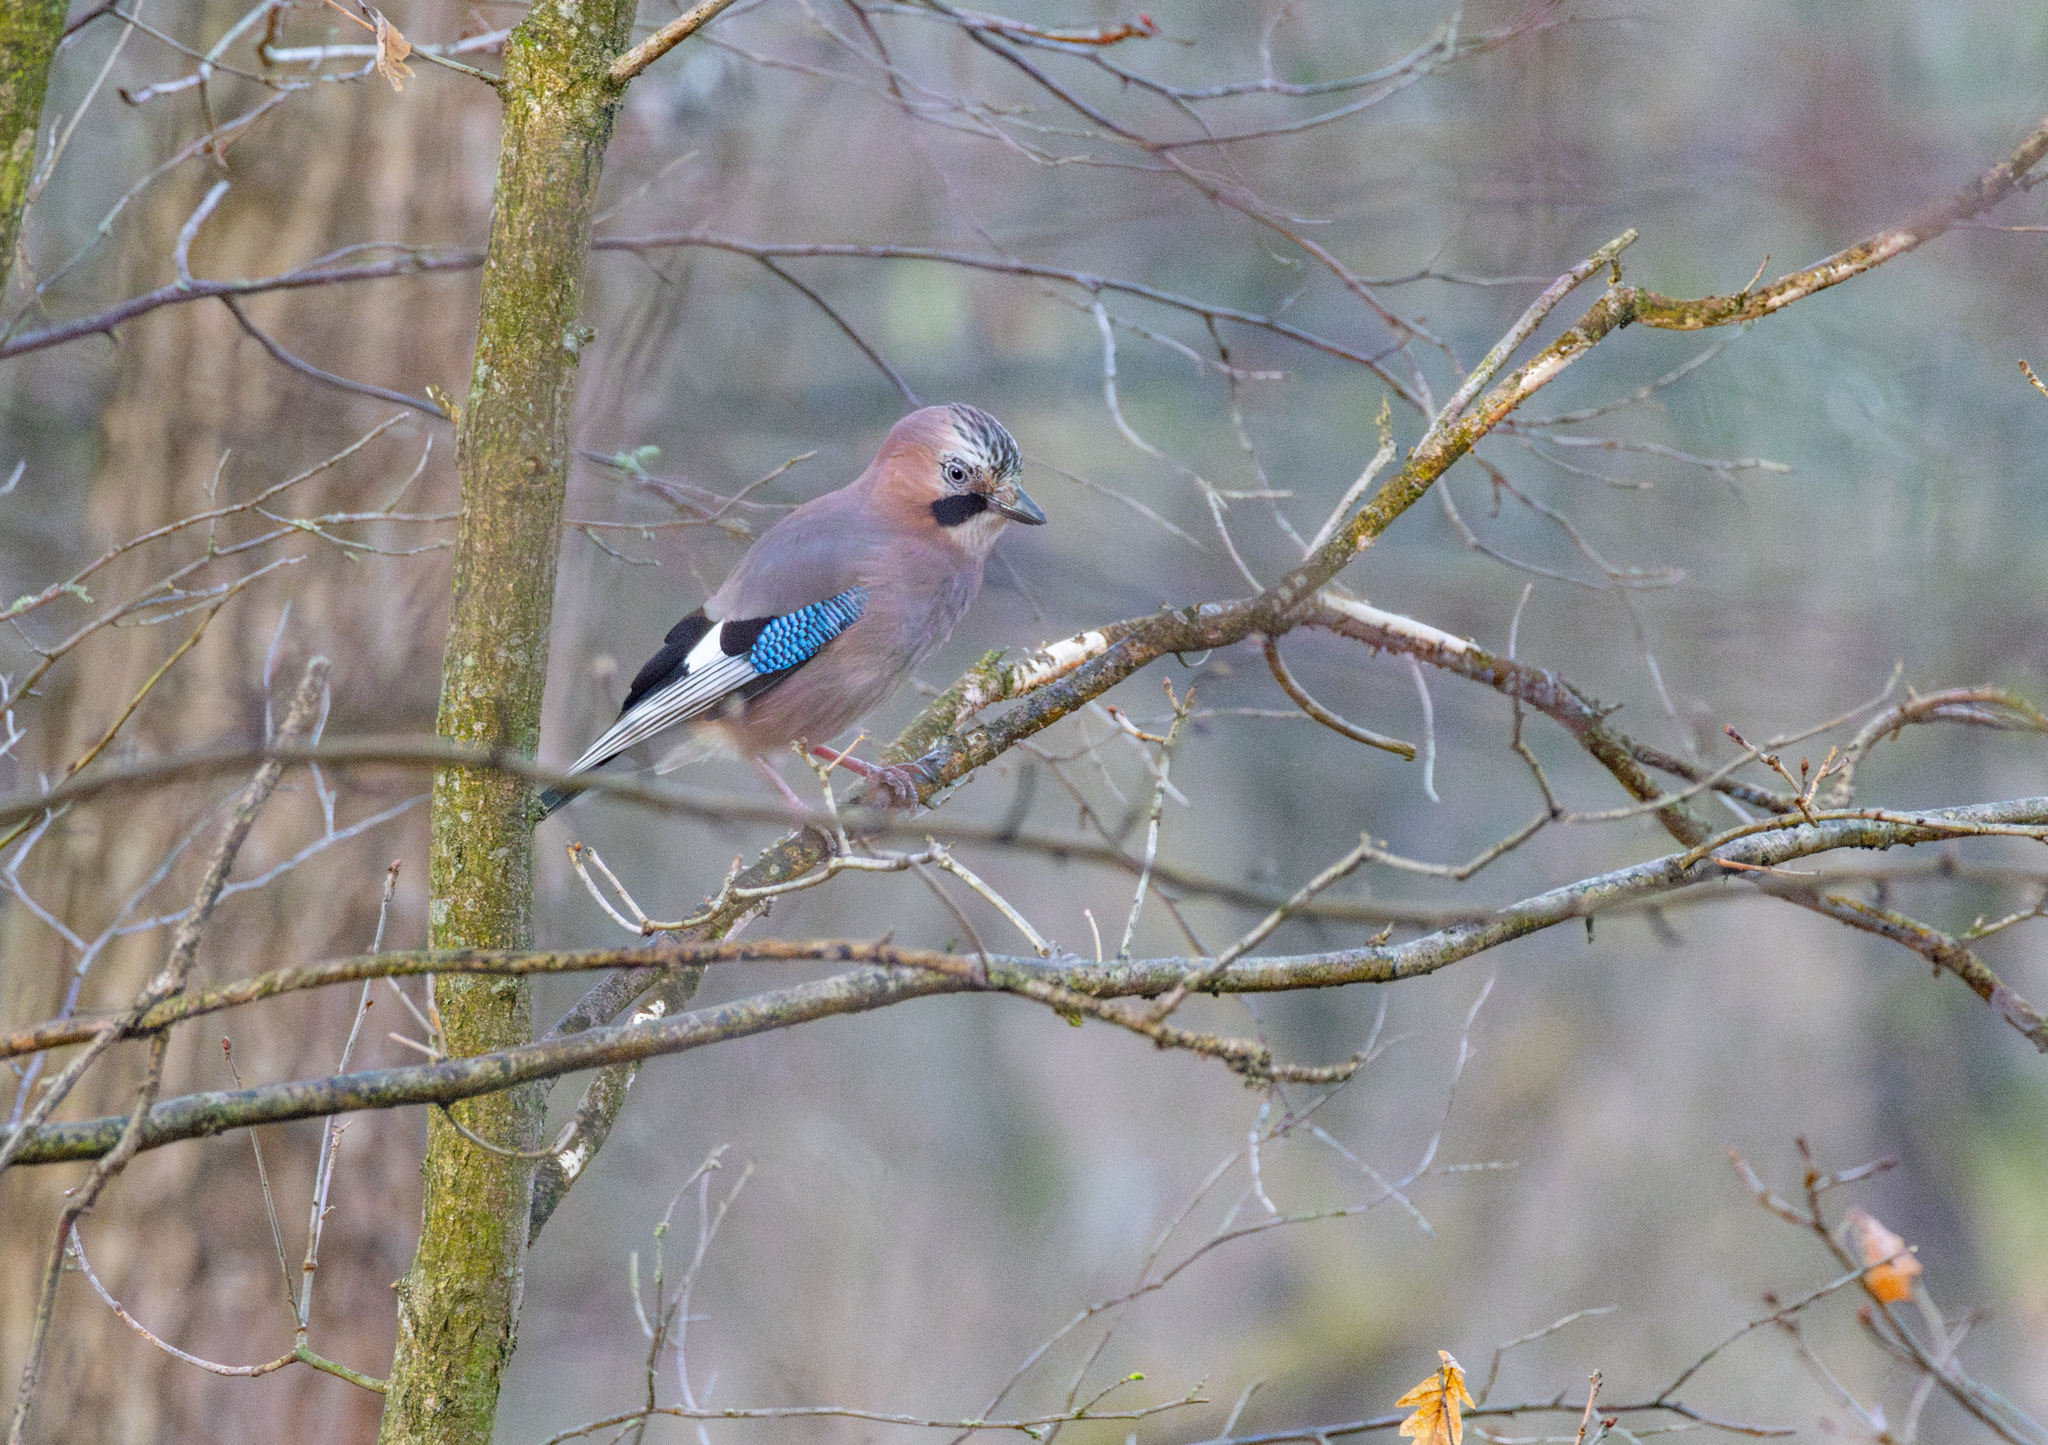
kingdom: Animalia
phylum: Chordata
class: Aves
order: Passeriformes
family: Corvidae
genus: Garrulus
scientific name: Garrulus glandarius
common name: Eurasian jay
